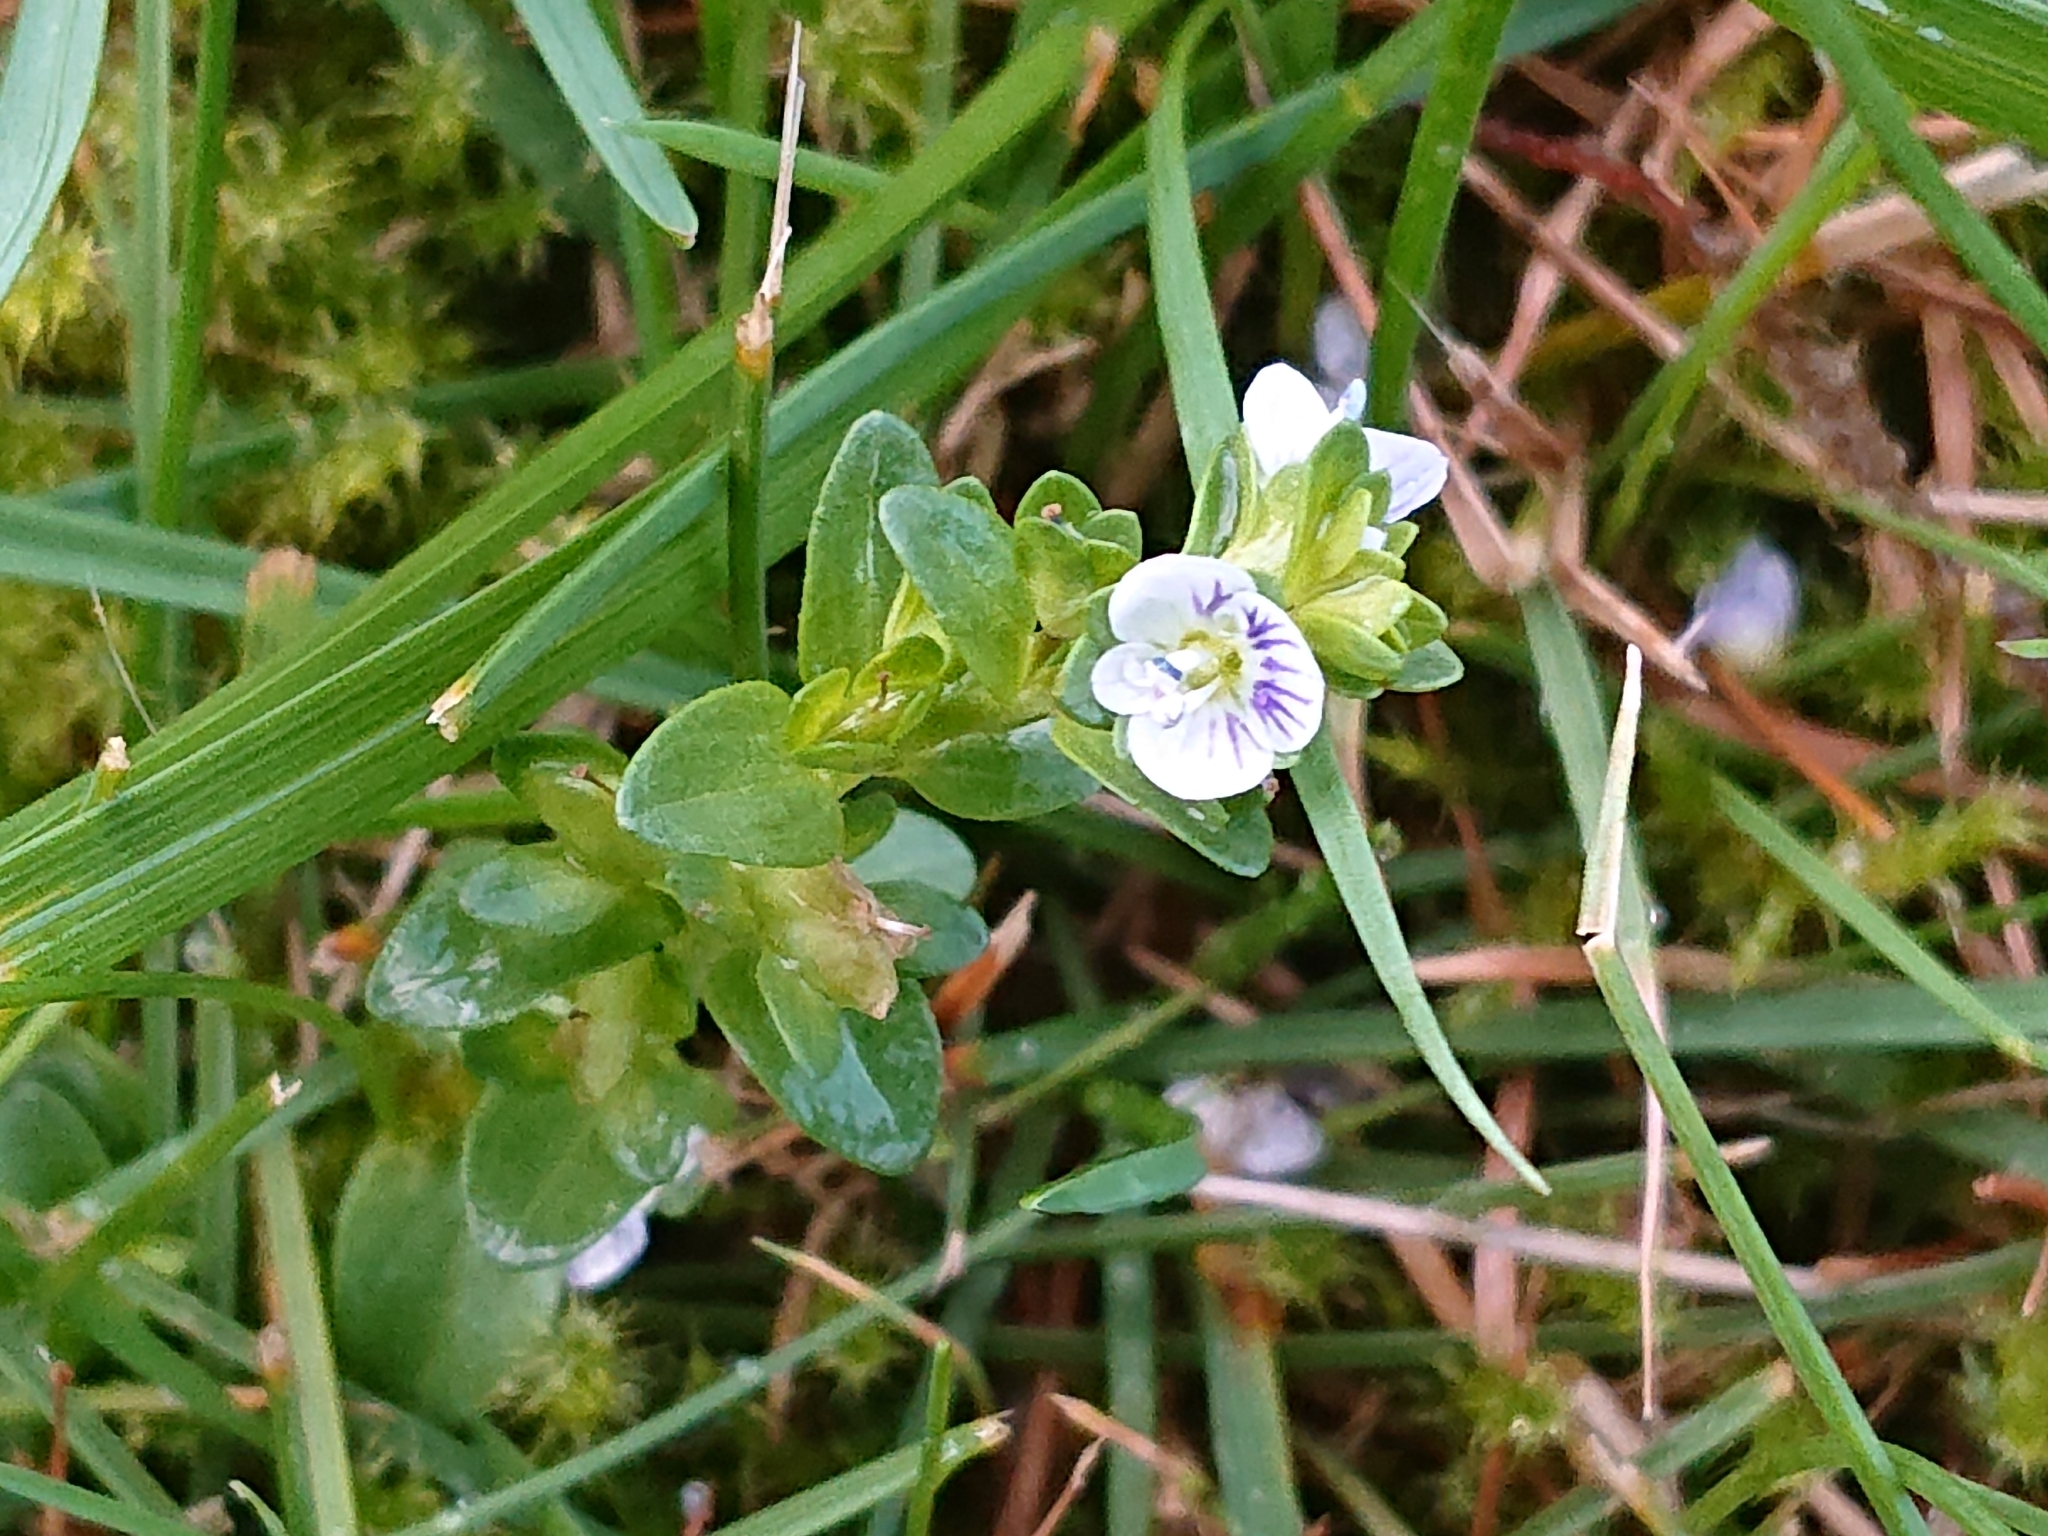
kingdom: Plantae
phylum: Tracheophyta
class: Magnoliopsida
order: Lamiales
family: Plantaginaceae
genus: Veronica
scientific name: Veronica serpyllifolia
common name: Thyme-leaved speedwell
